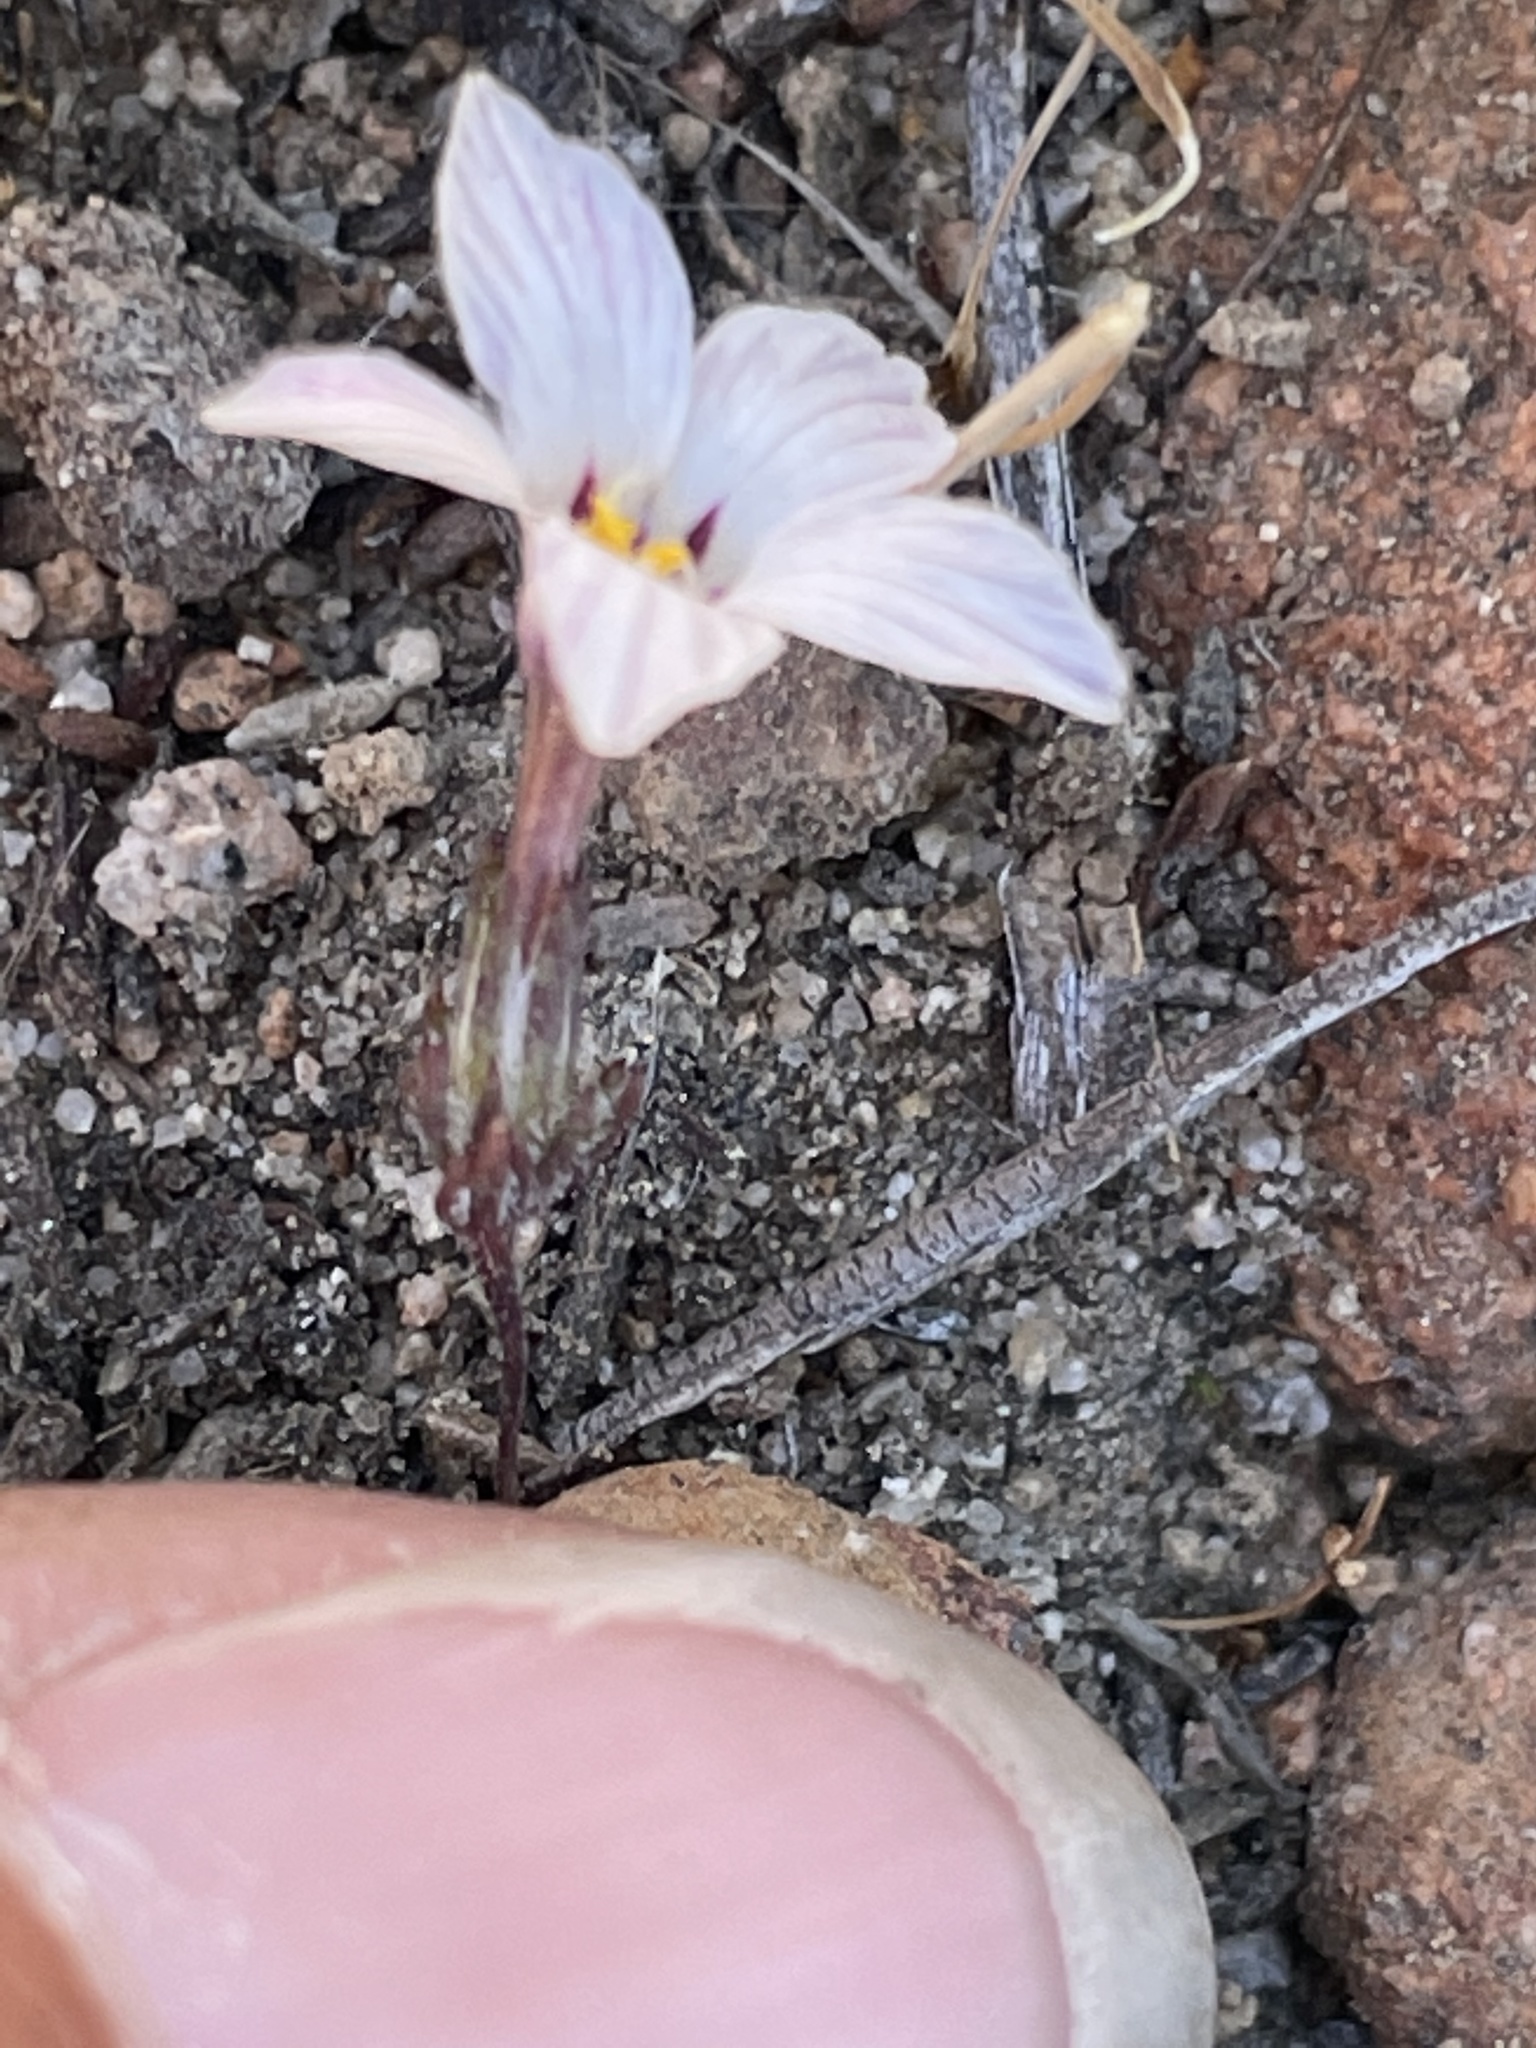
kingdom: Plantae
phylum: Tracheophyta
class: Magnoliopsida
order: Ericales
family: Polemoniaceae
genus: Linanthus
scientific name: Linanthus orcuttii
